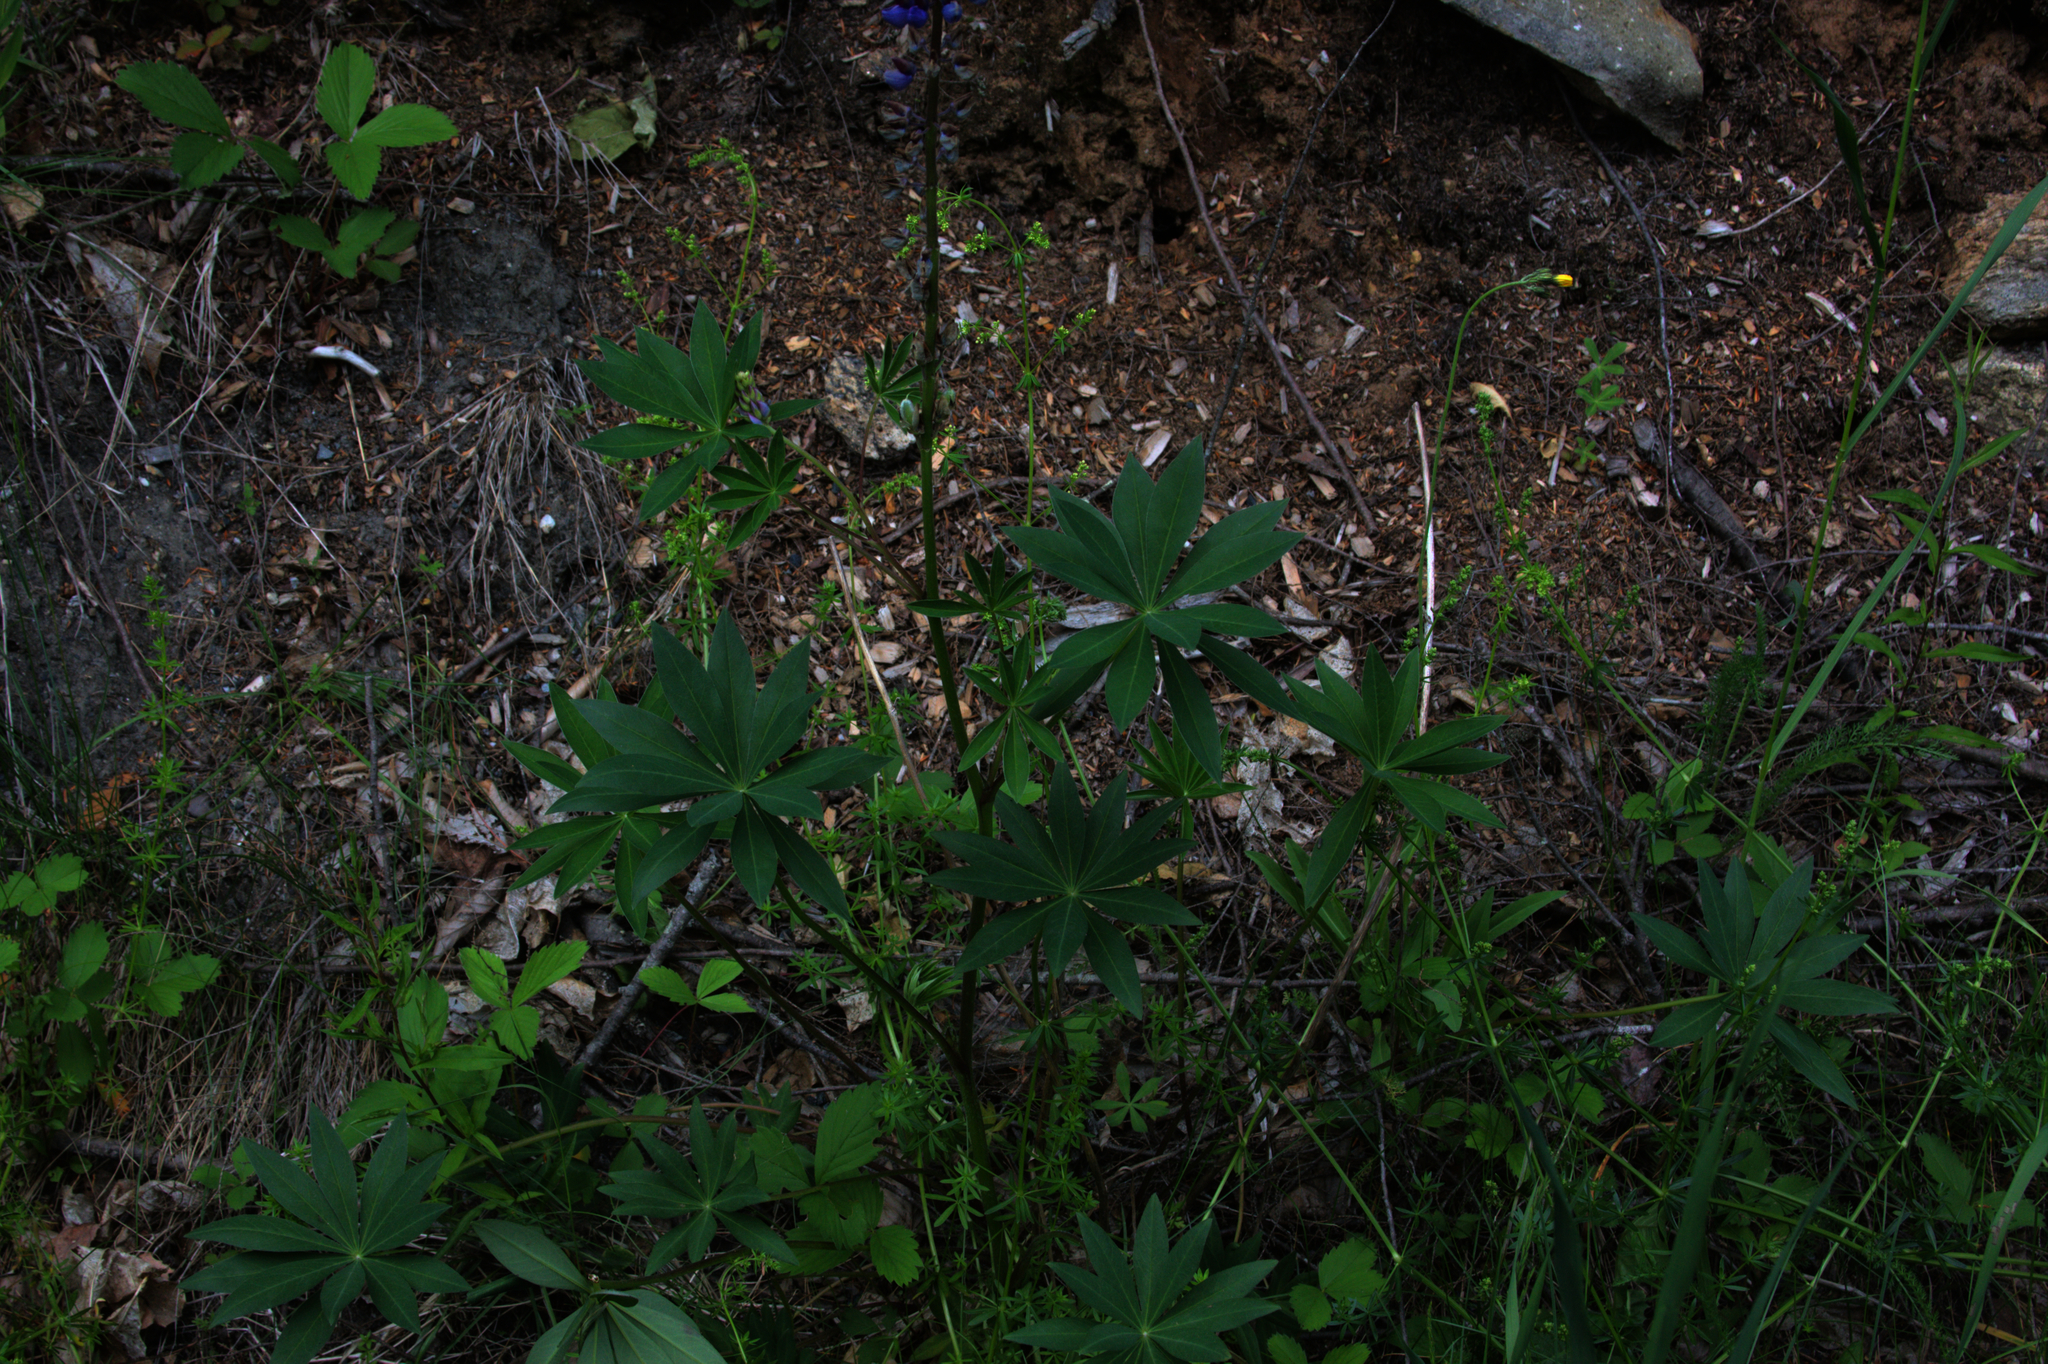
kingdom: Plantae
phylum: Tracheophyta
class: Magnoliopsida
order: Fabales
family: Fabaceae
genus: Lupinus
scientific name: Lupinus polyphyllus
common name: Garden lupin
